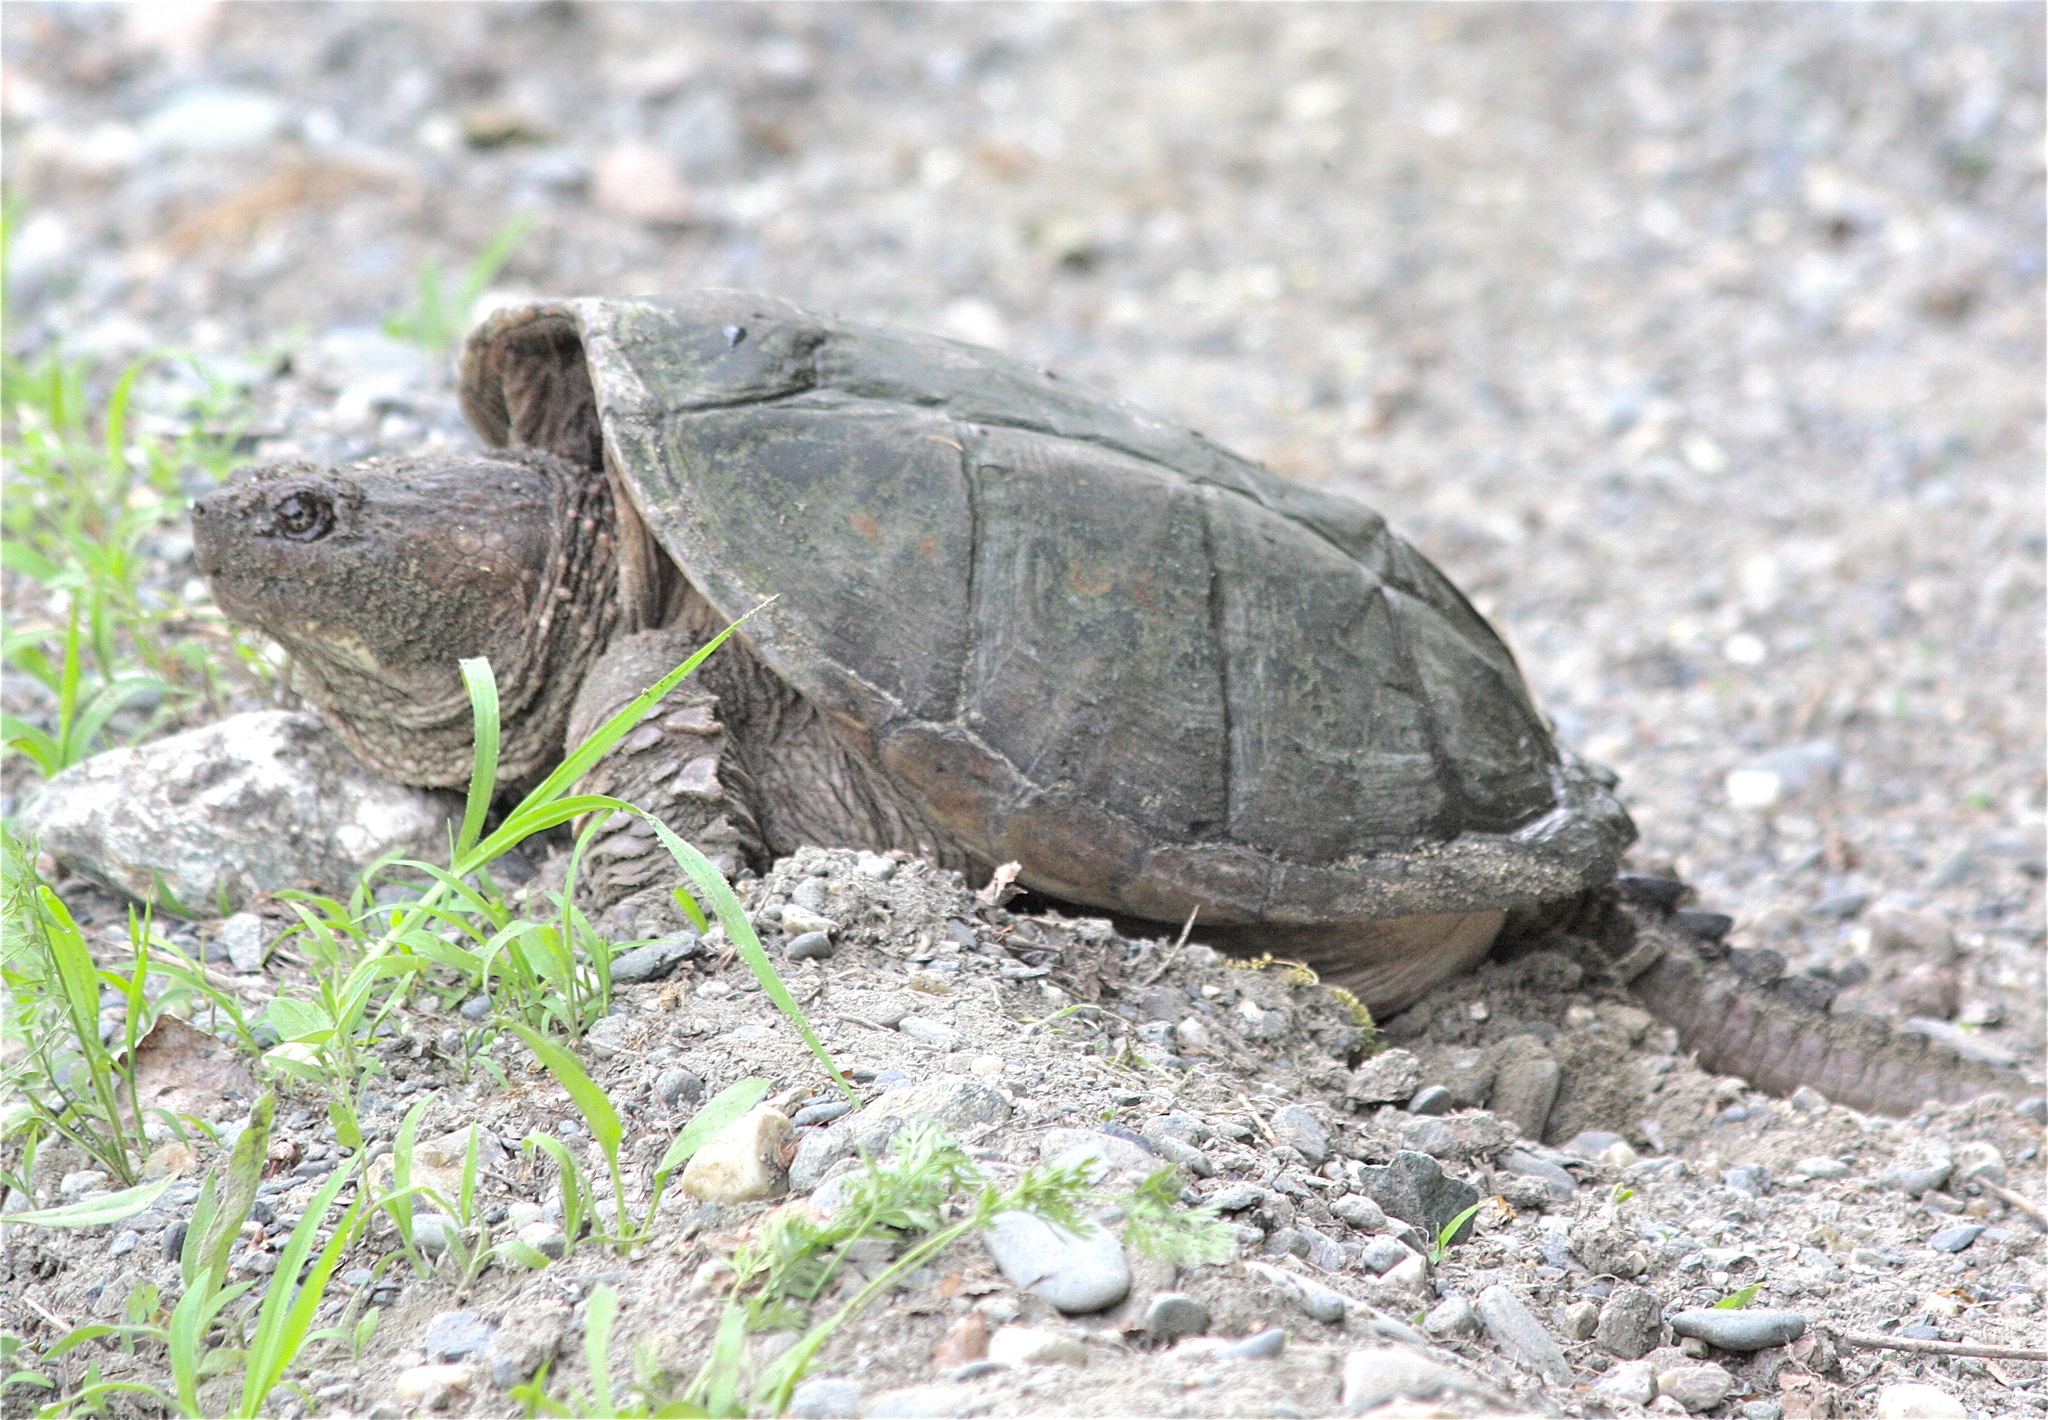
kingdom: Animalia
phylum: Chordata
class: Testudines
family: Chelydridae
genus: Chelydra
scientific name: Chelydra serpentina
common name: Common snapping turtle
